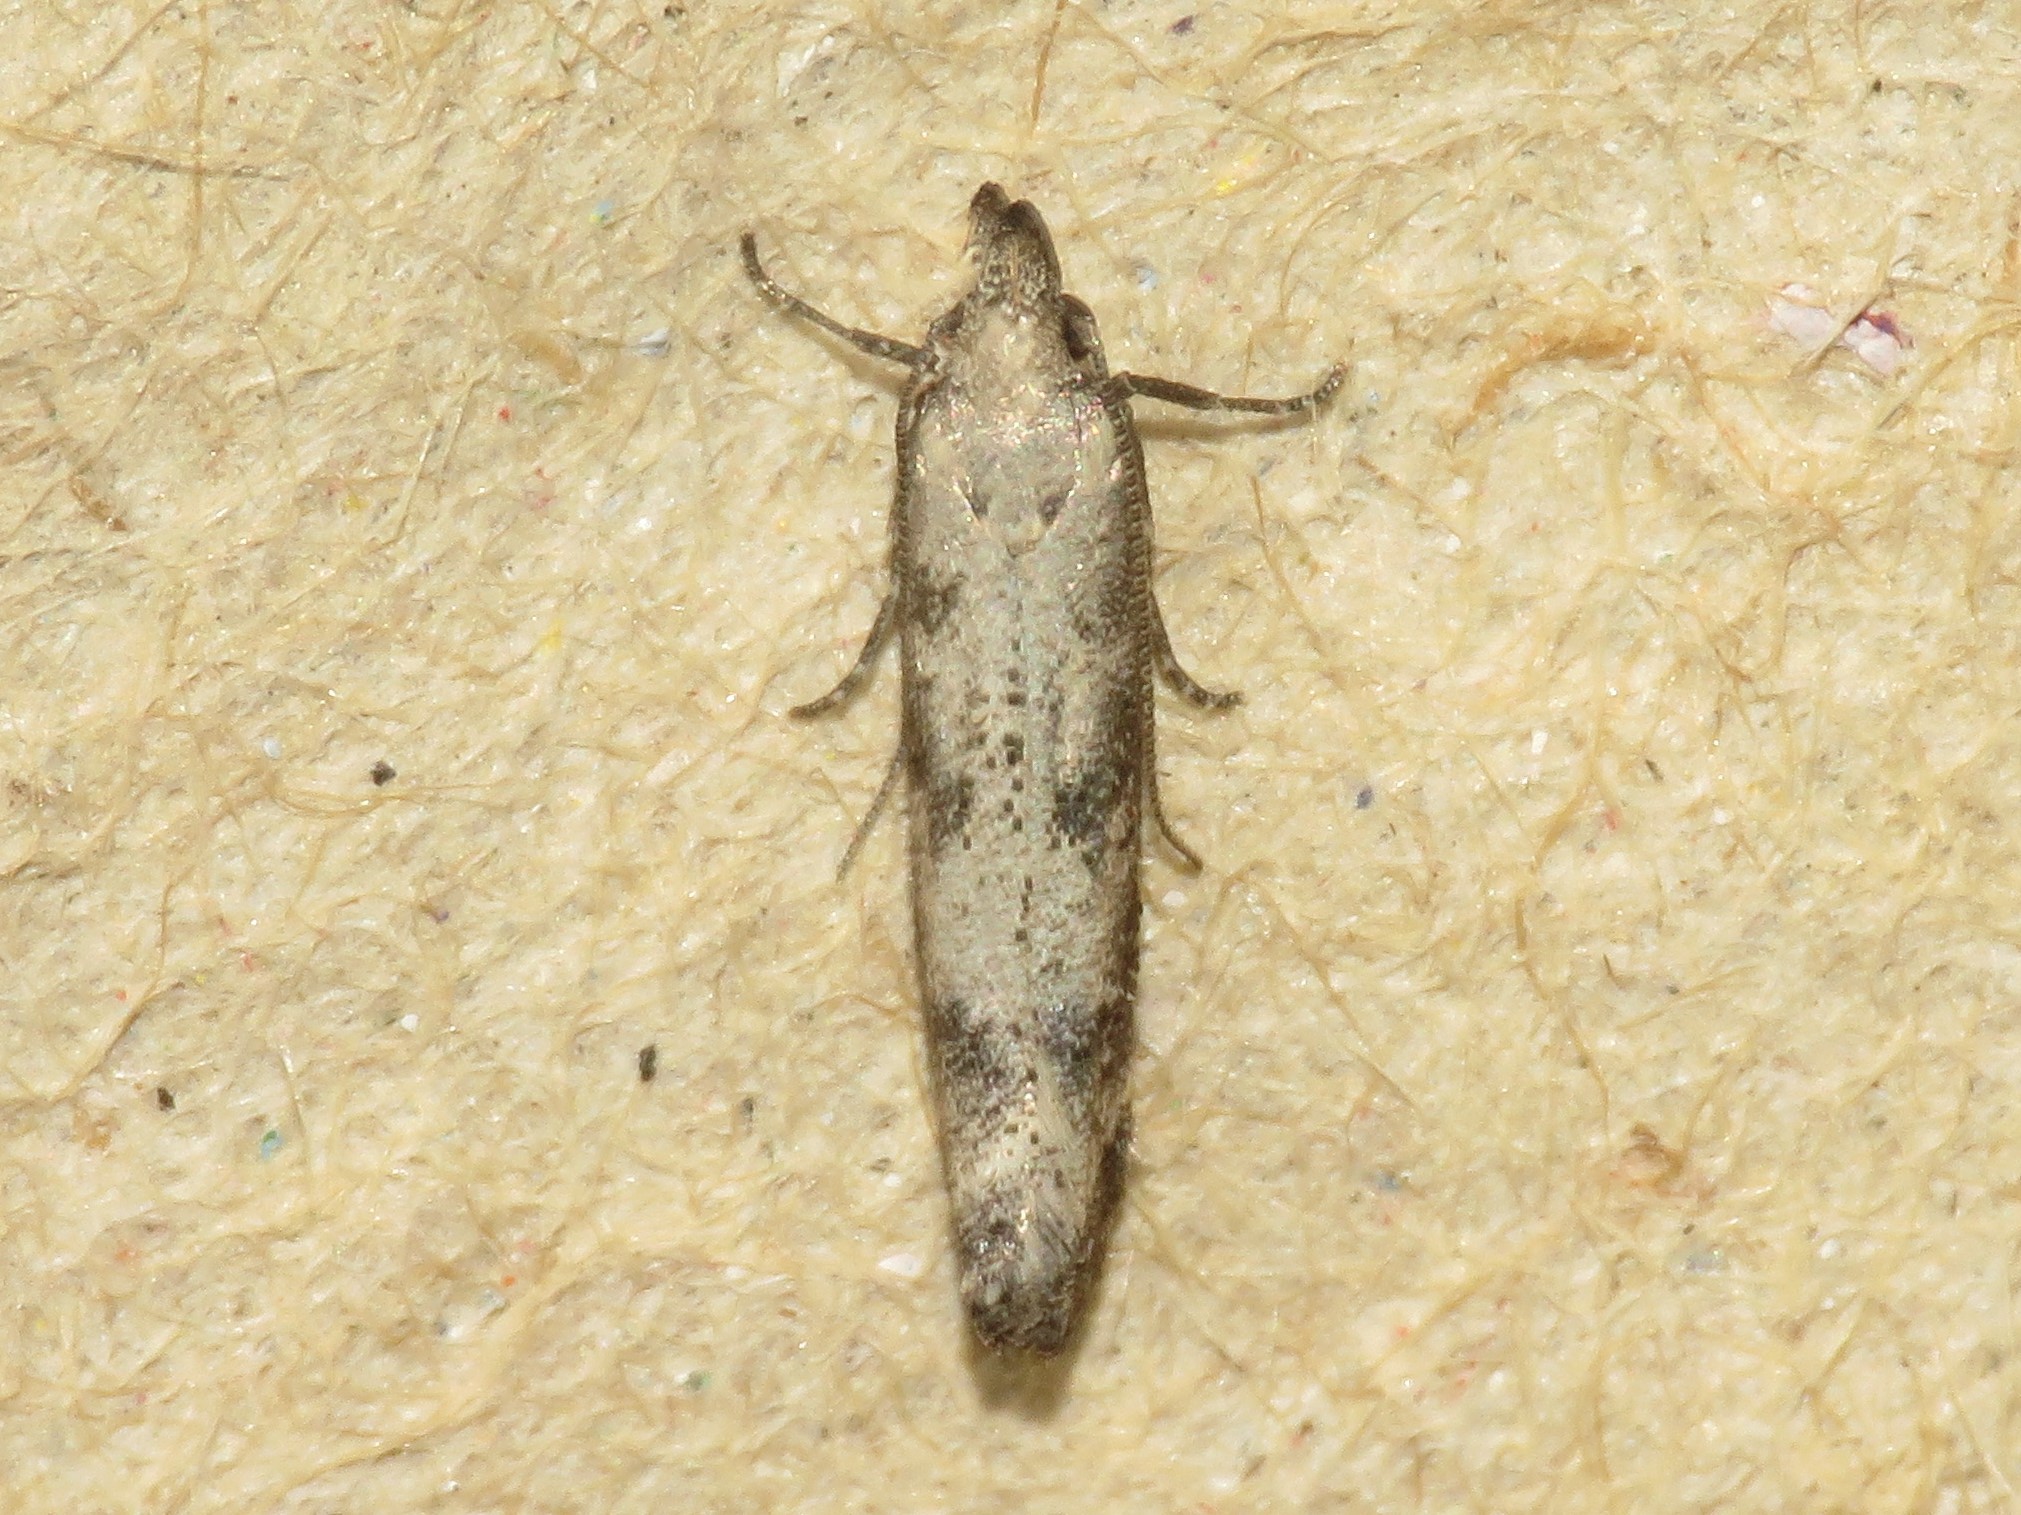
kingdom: Animalia
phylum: Arthropoda
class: Insecta
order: Lepidoptera
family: Gelechiidae
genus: Dichomeris
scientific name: Dichomeris inversella
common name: Inverse dichomeris moth
